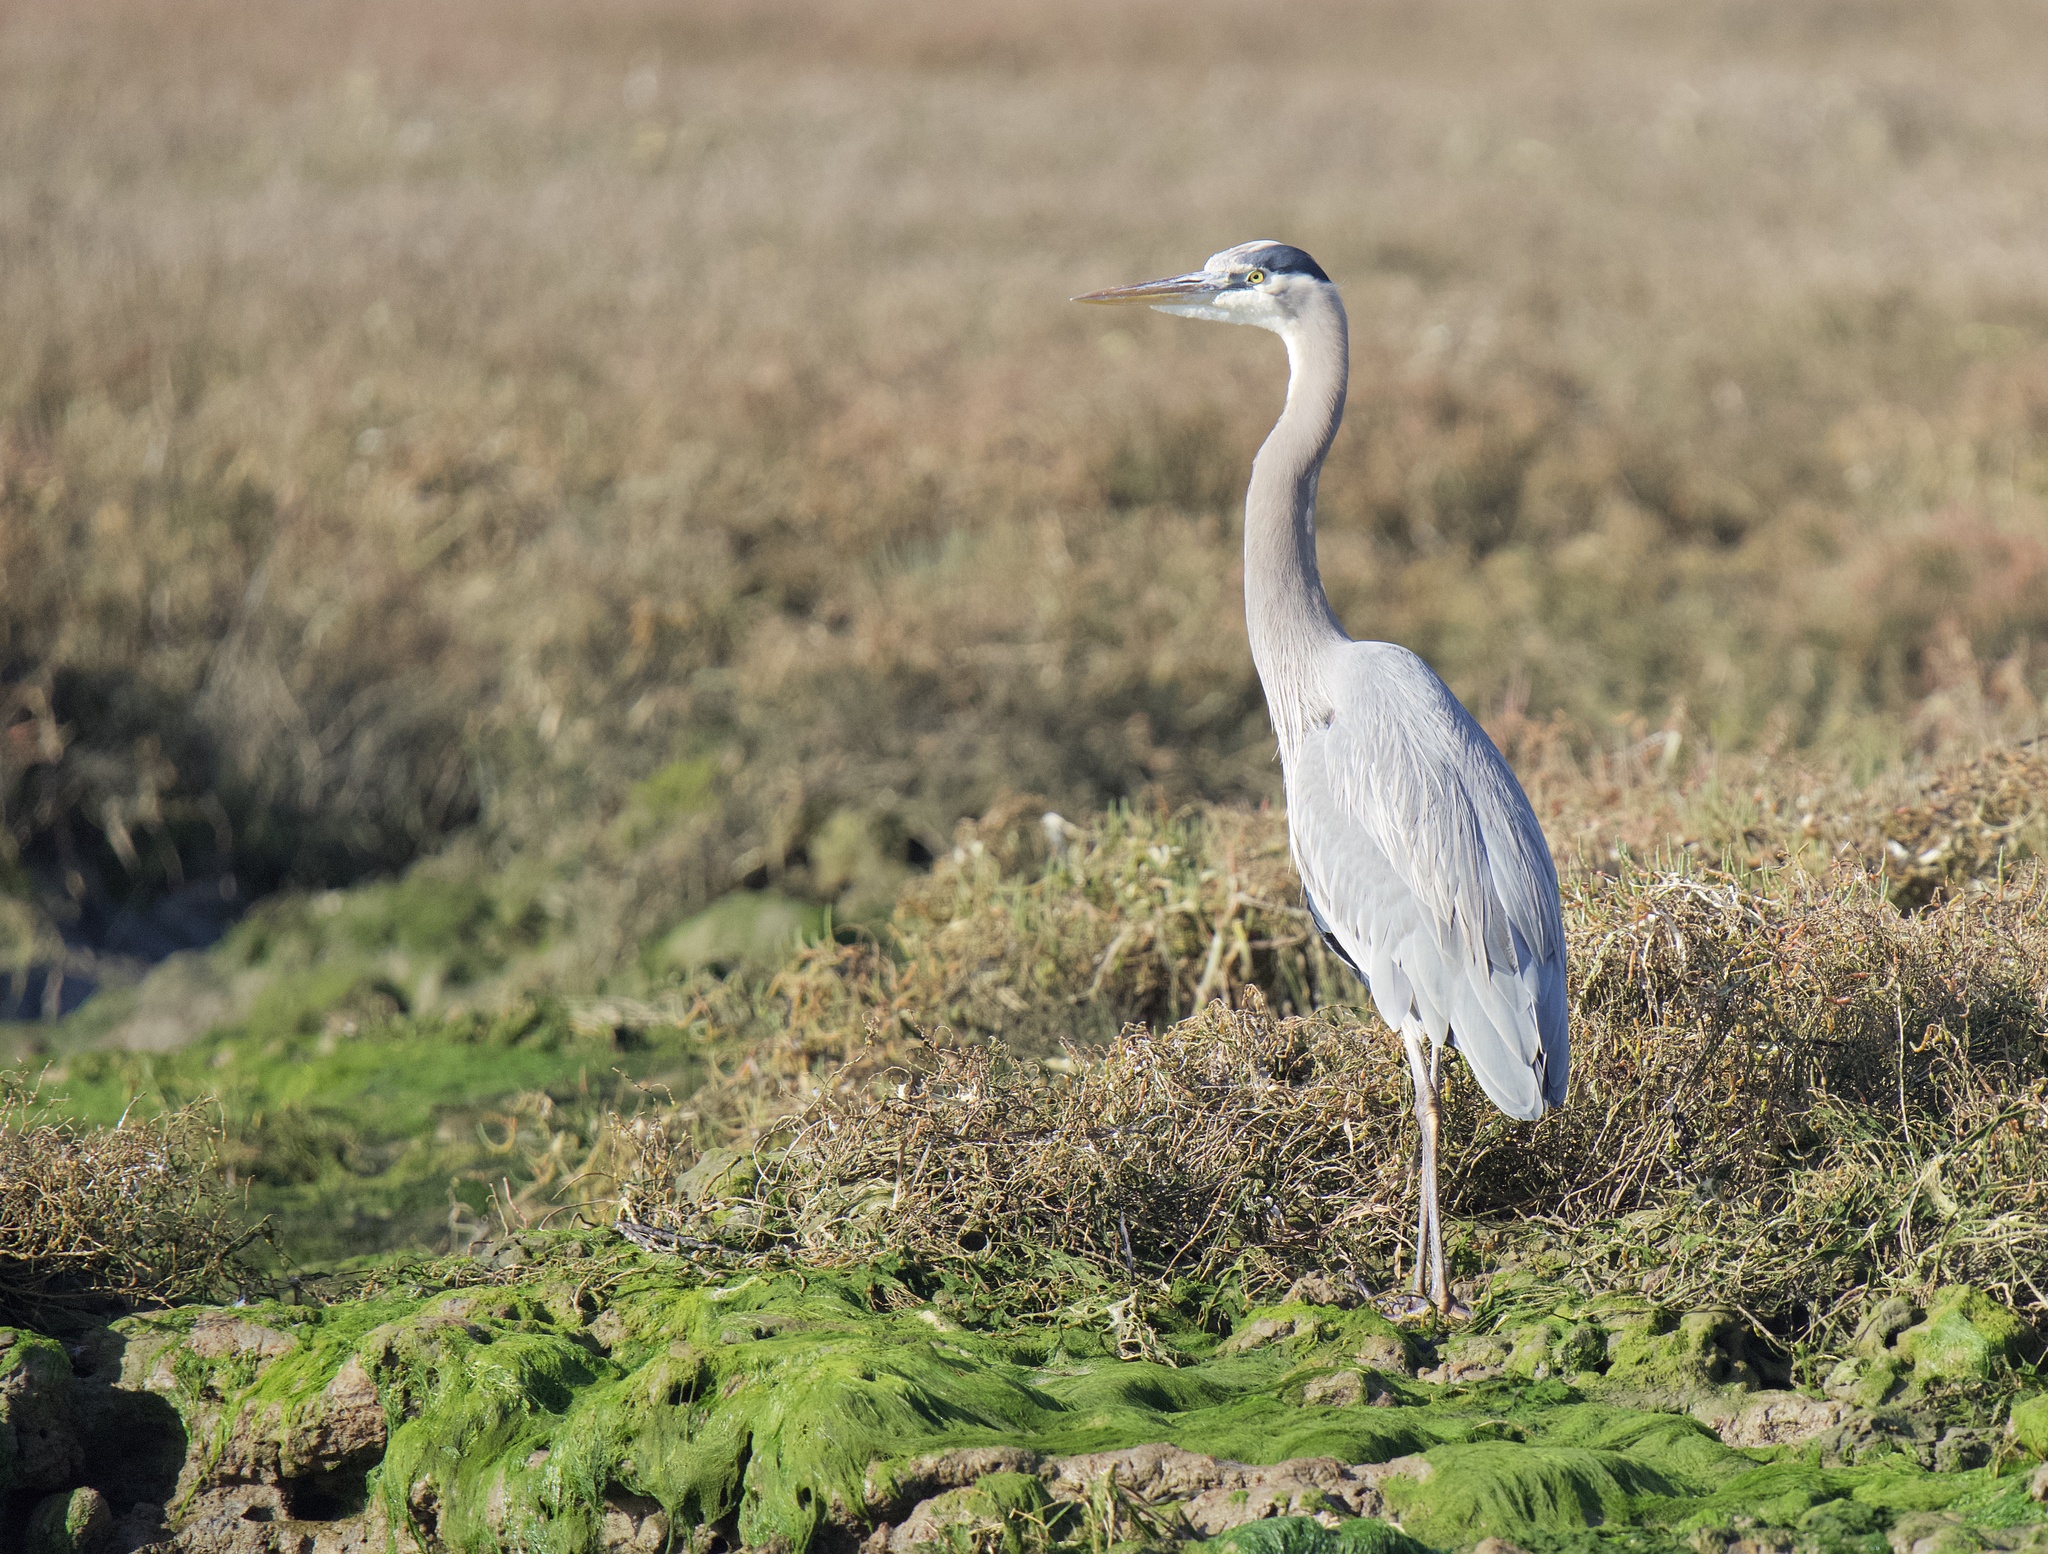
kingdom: Animalia
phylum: Chordata
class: Aves
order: Pelecaniformes
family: Ardeidae
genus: Ardea
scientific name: Ardea herodias
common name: Great blue heron
